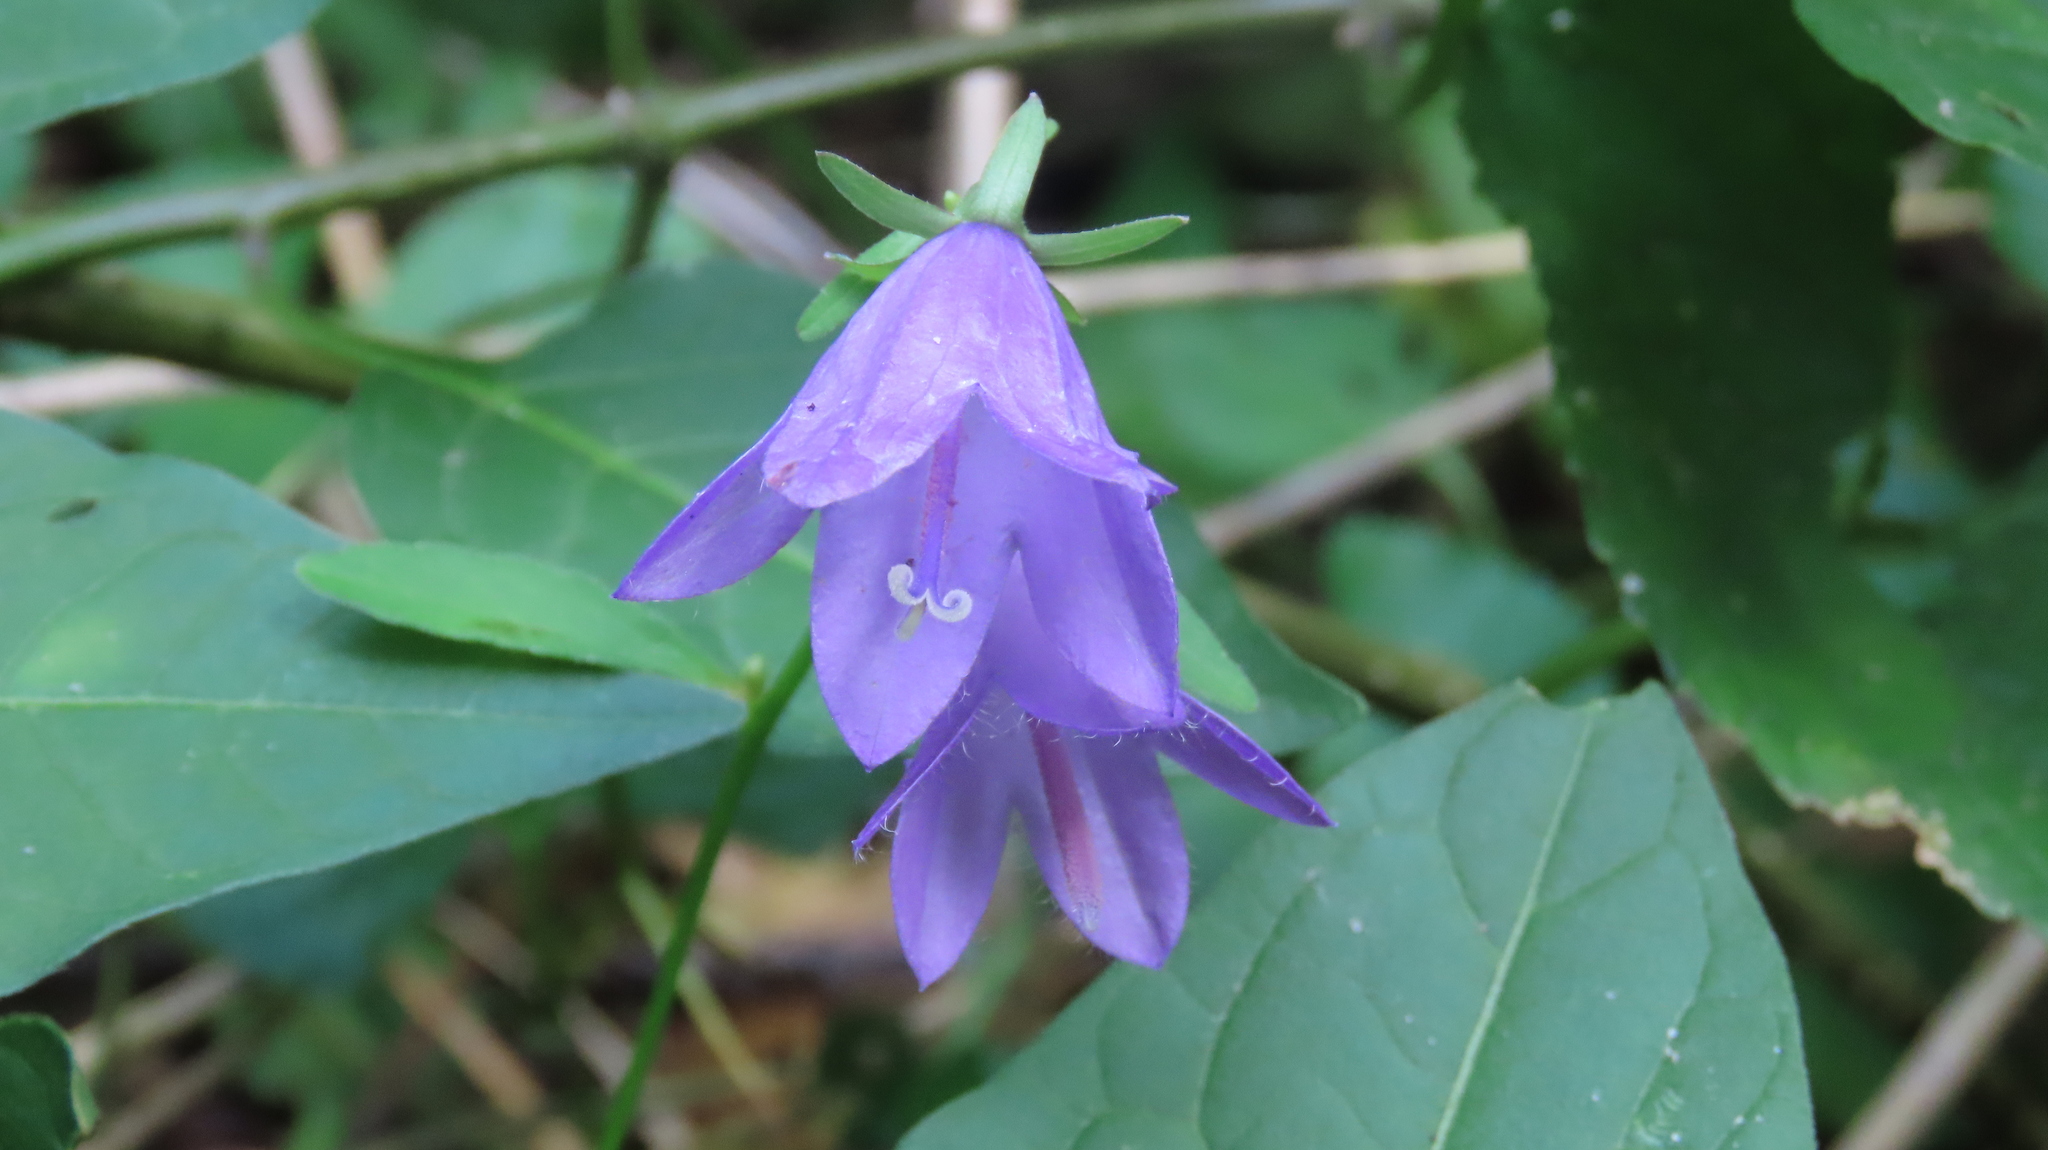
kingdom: Plantae
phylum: Tracheophyta
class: Magnoliopsida
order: Asterales
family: Campanulaceae
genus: Campanula
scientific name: Campanula rapunculoides
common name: Creeping bellflower
